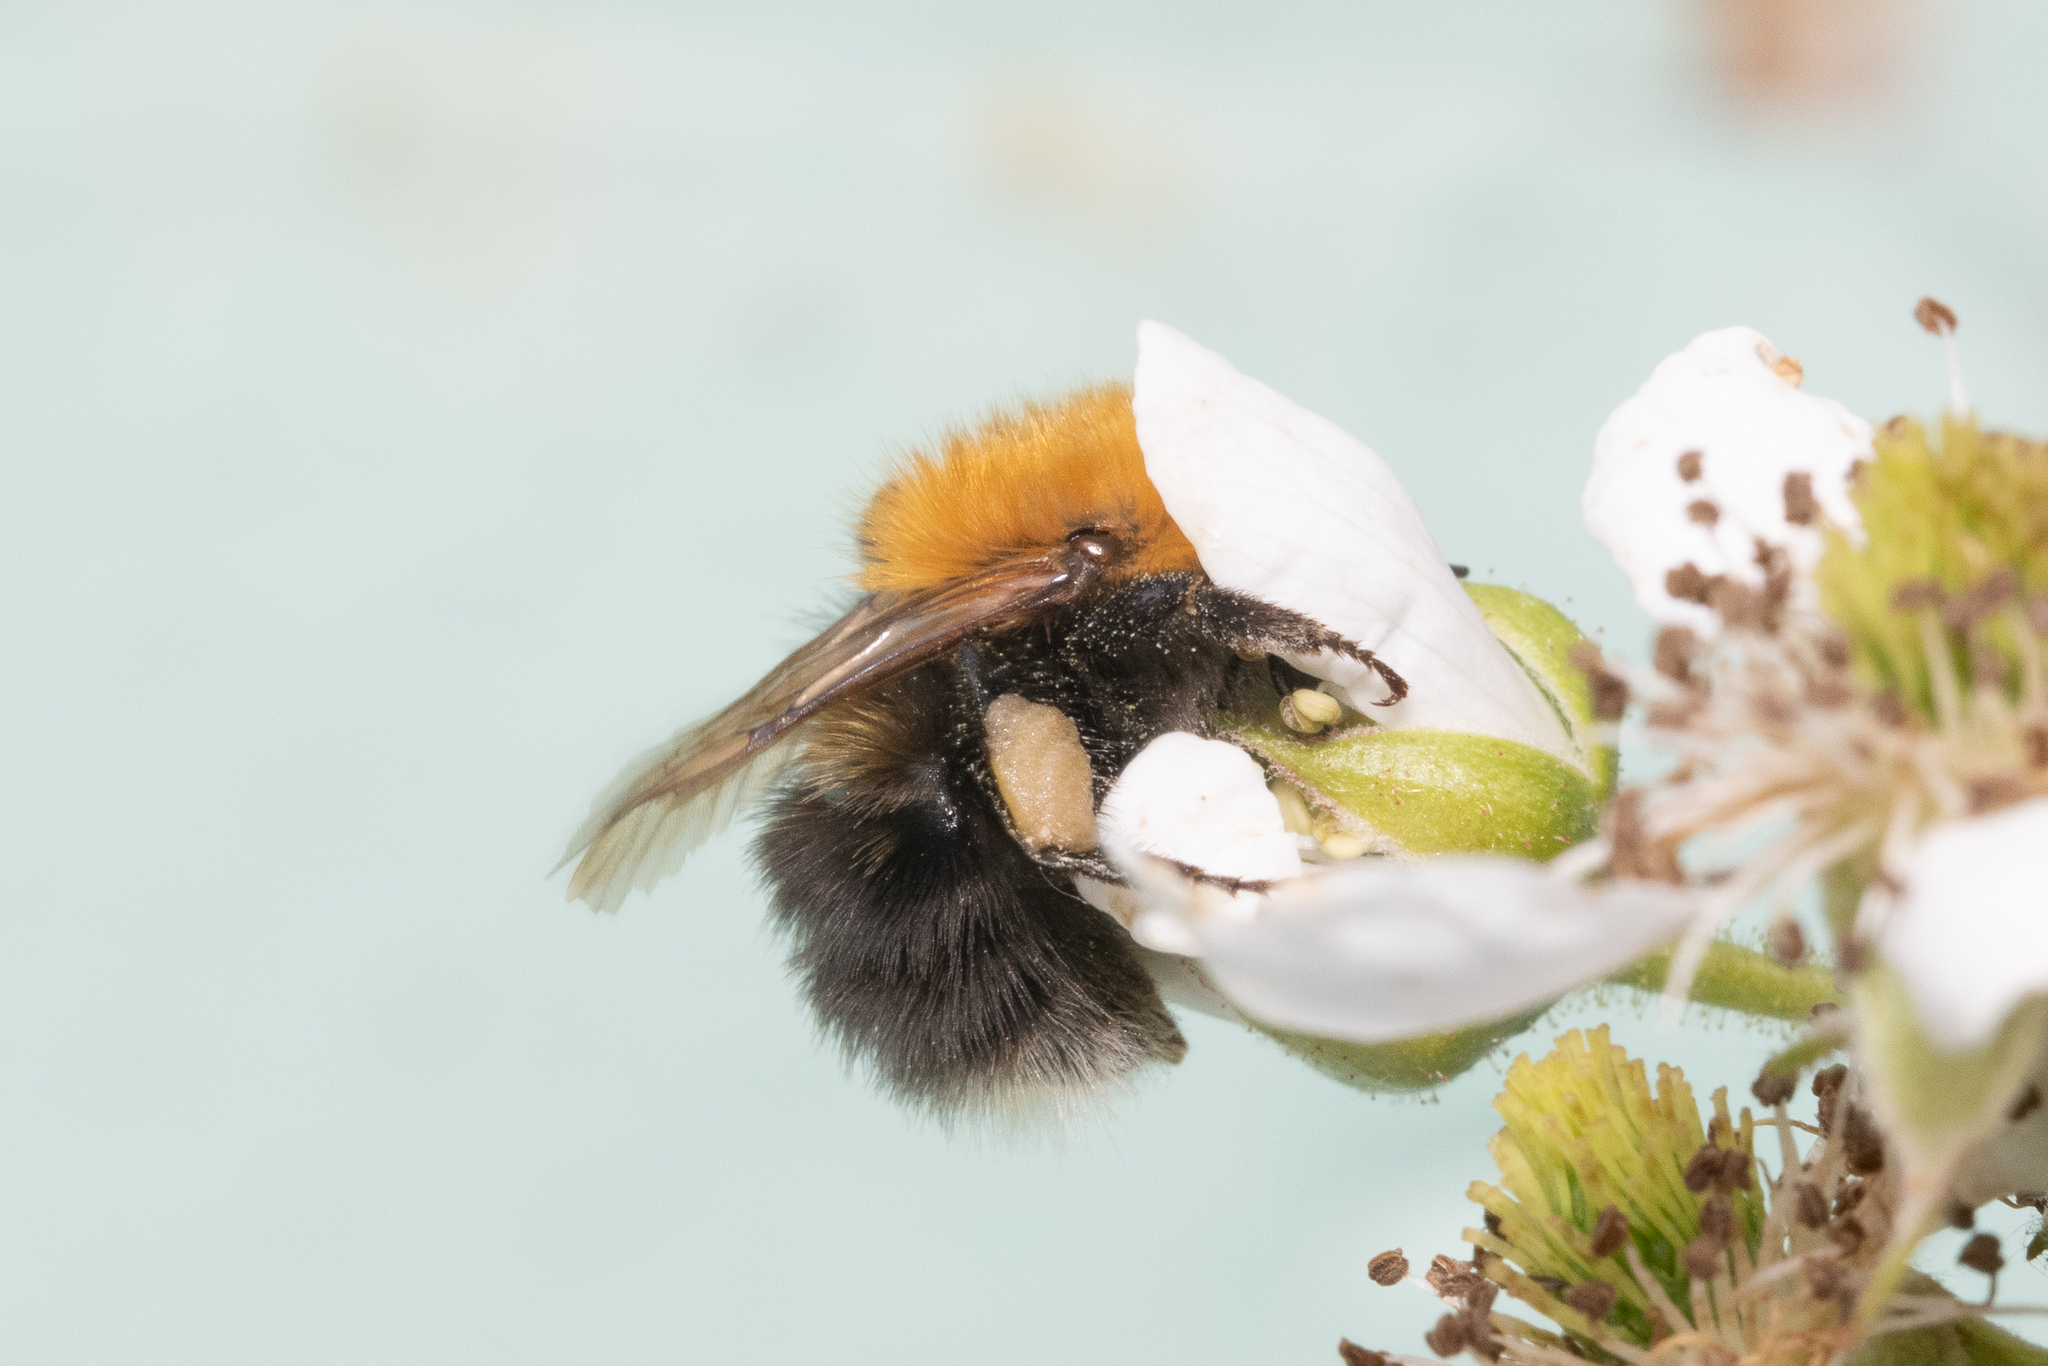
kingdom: Animalia
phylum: Arthropoda
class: Insecta
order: Hymenoptera
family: Apidae
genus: Bombus
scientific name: Bombus hypnorum
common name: New garden bumblebee
